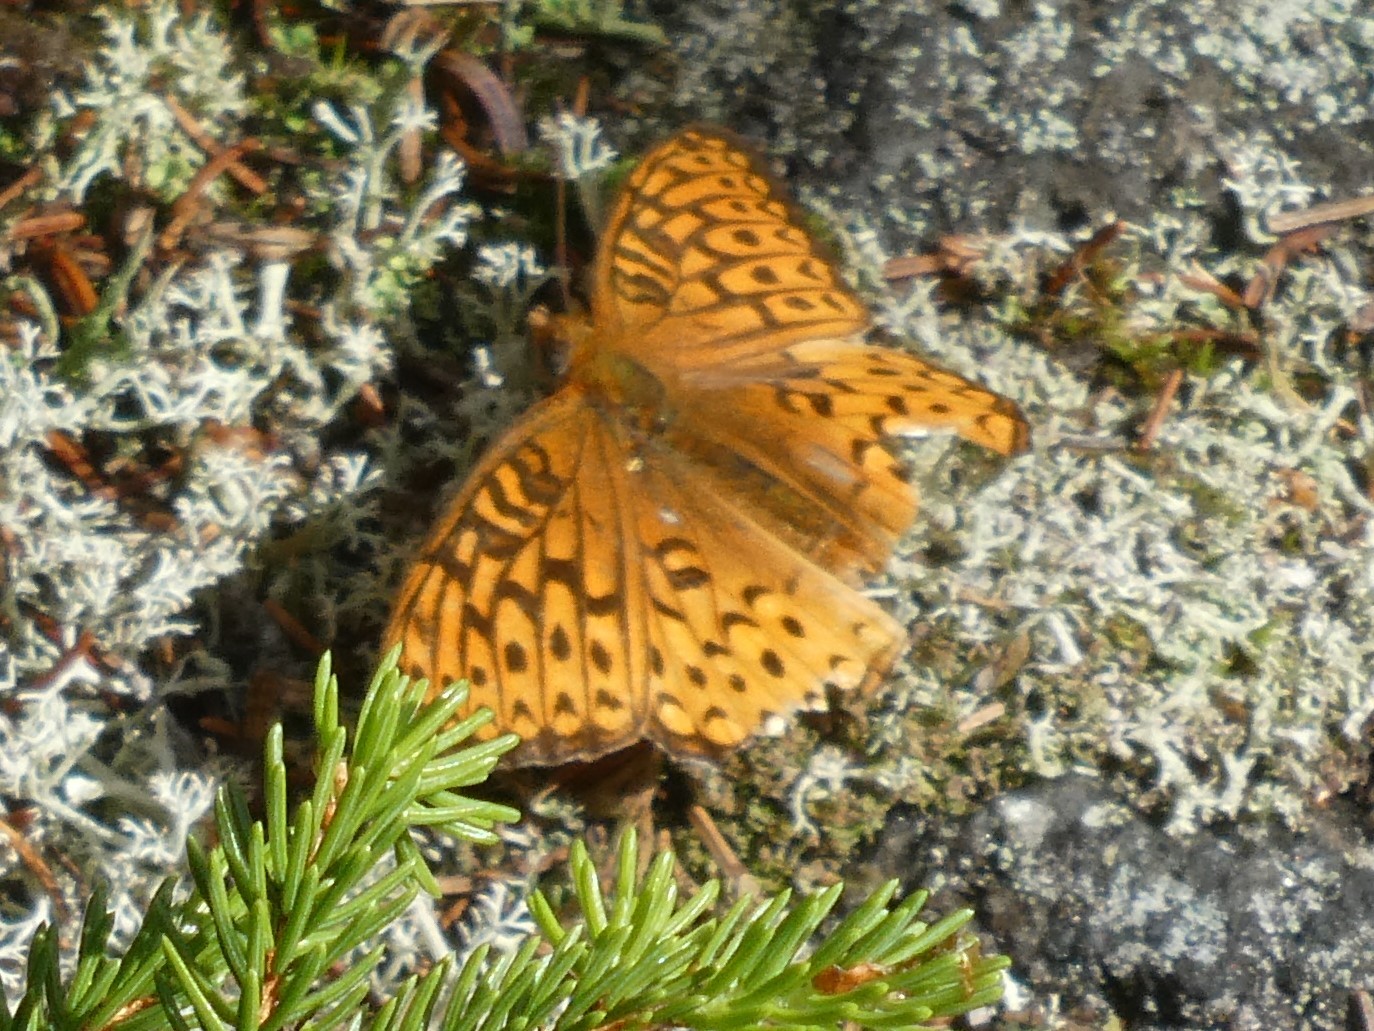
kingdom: Animalia
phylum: Arthropoda
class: Insecta
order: Lepidoptera
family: Nymphalidae
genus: Speyeria
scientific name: Speyeria atlantis
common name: Atlantis fritillary
